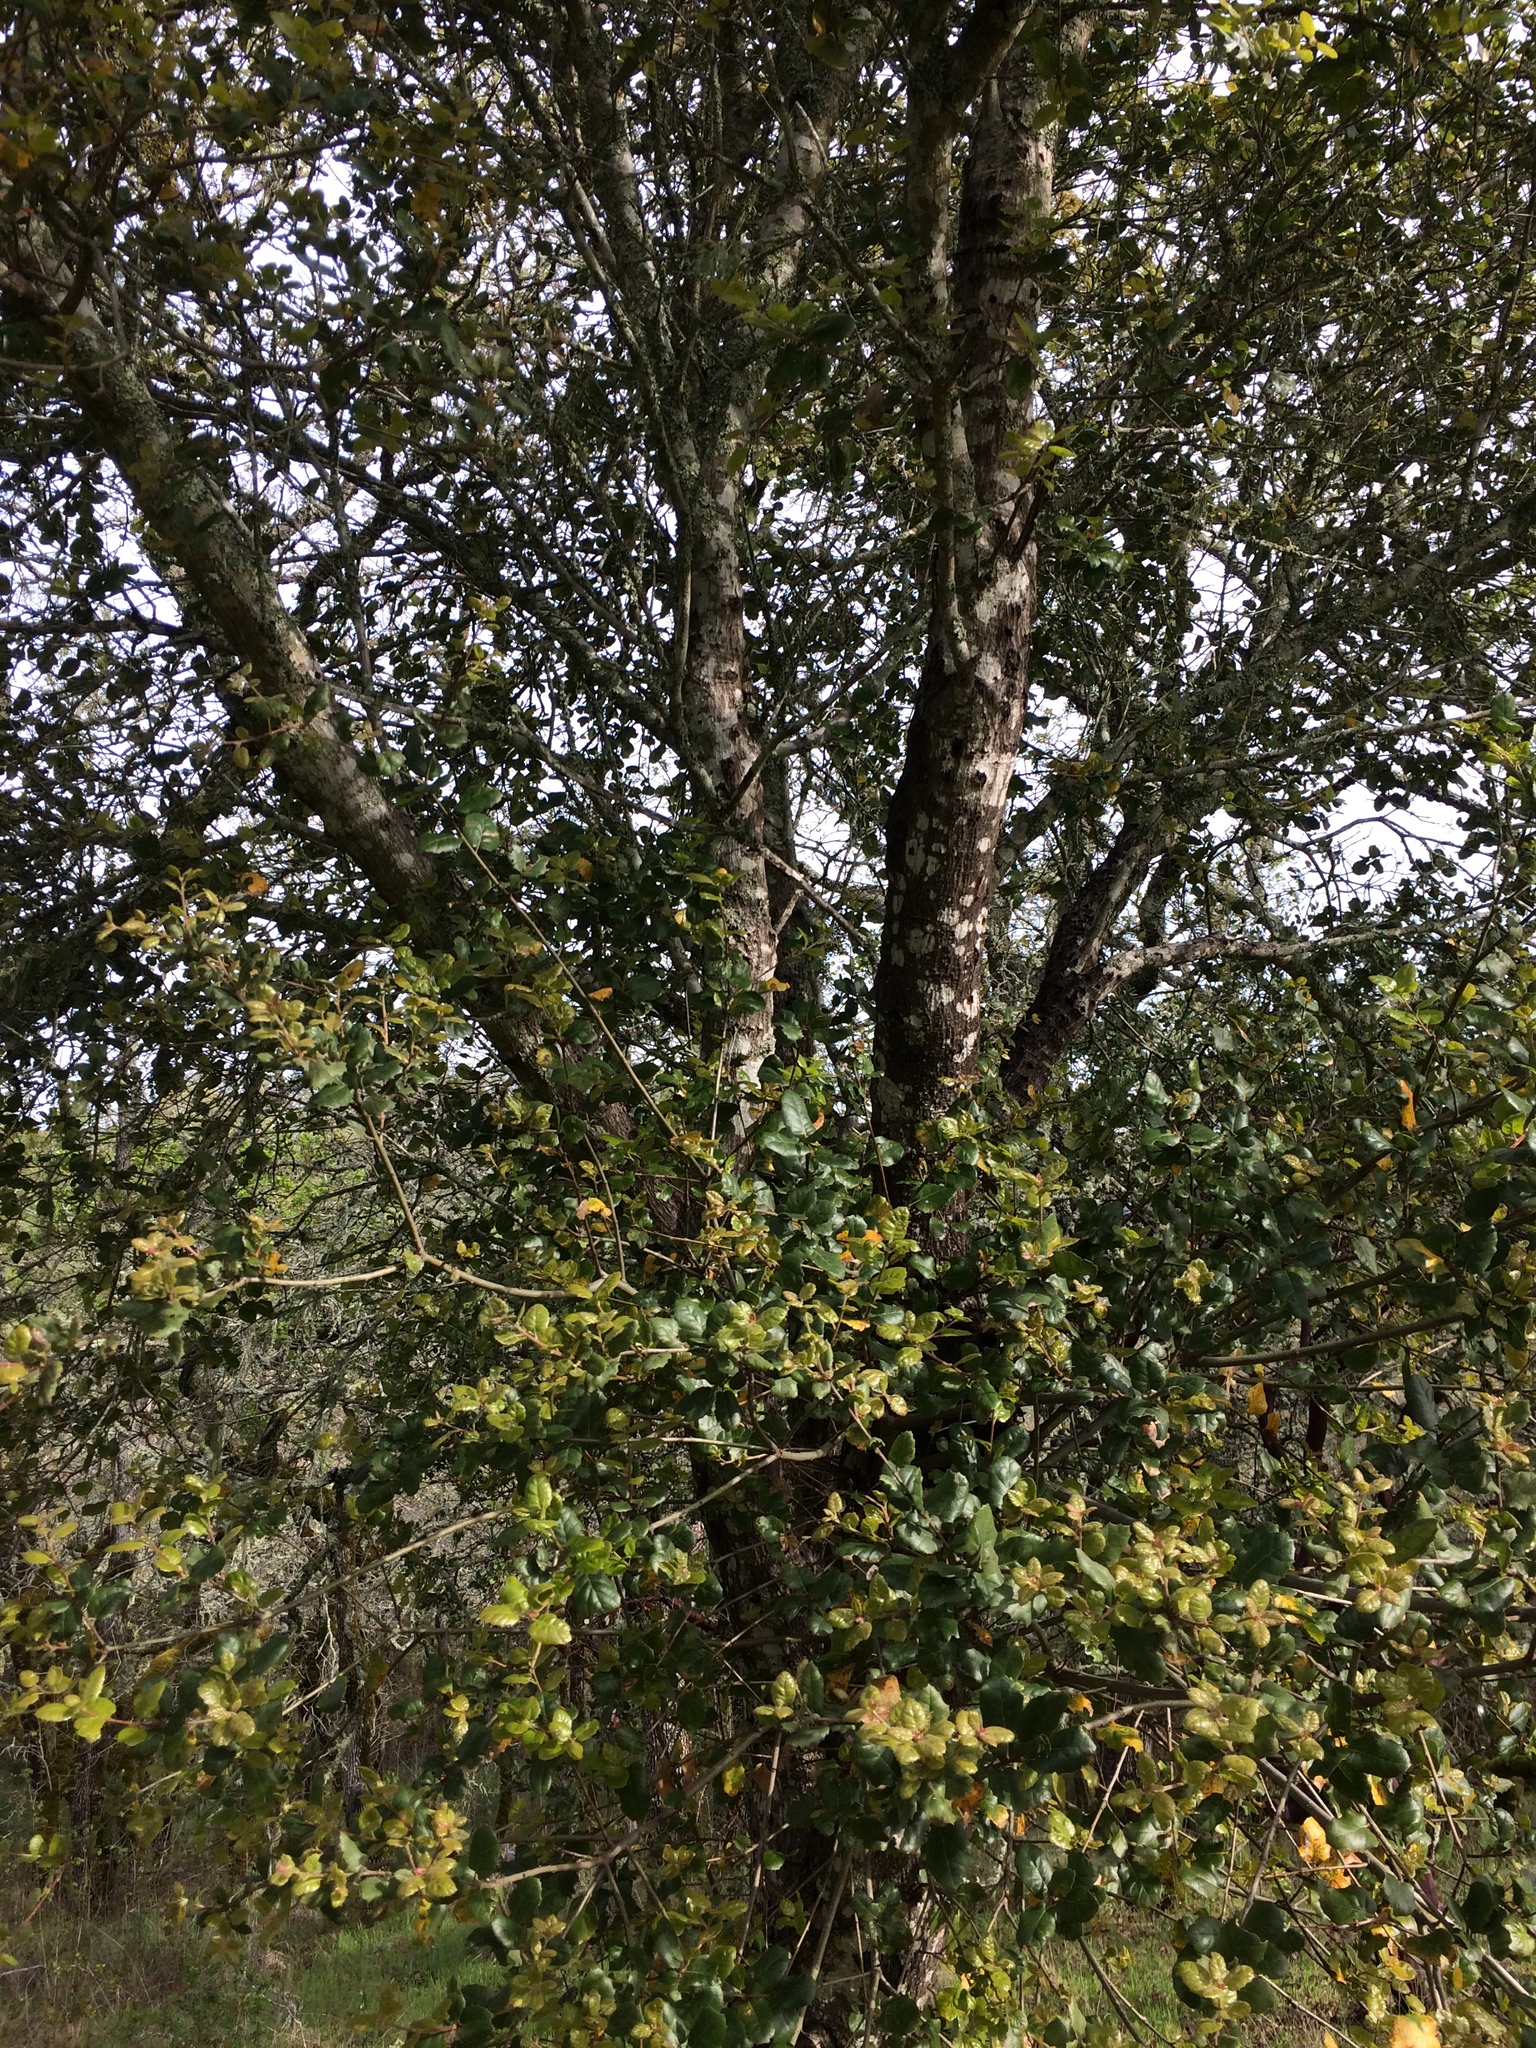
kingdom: Plantae
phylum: Tracheophyta
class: Magnoliopsida
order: Fagales
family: Fagaceae
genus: Quercus
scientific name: Quercus agrifolia
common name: California live oak
